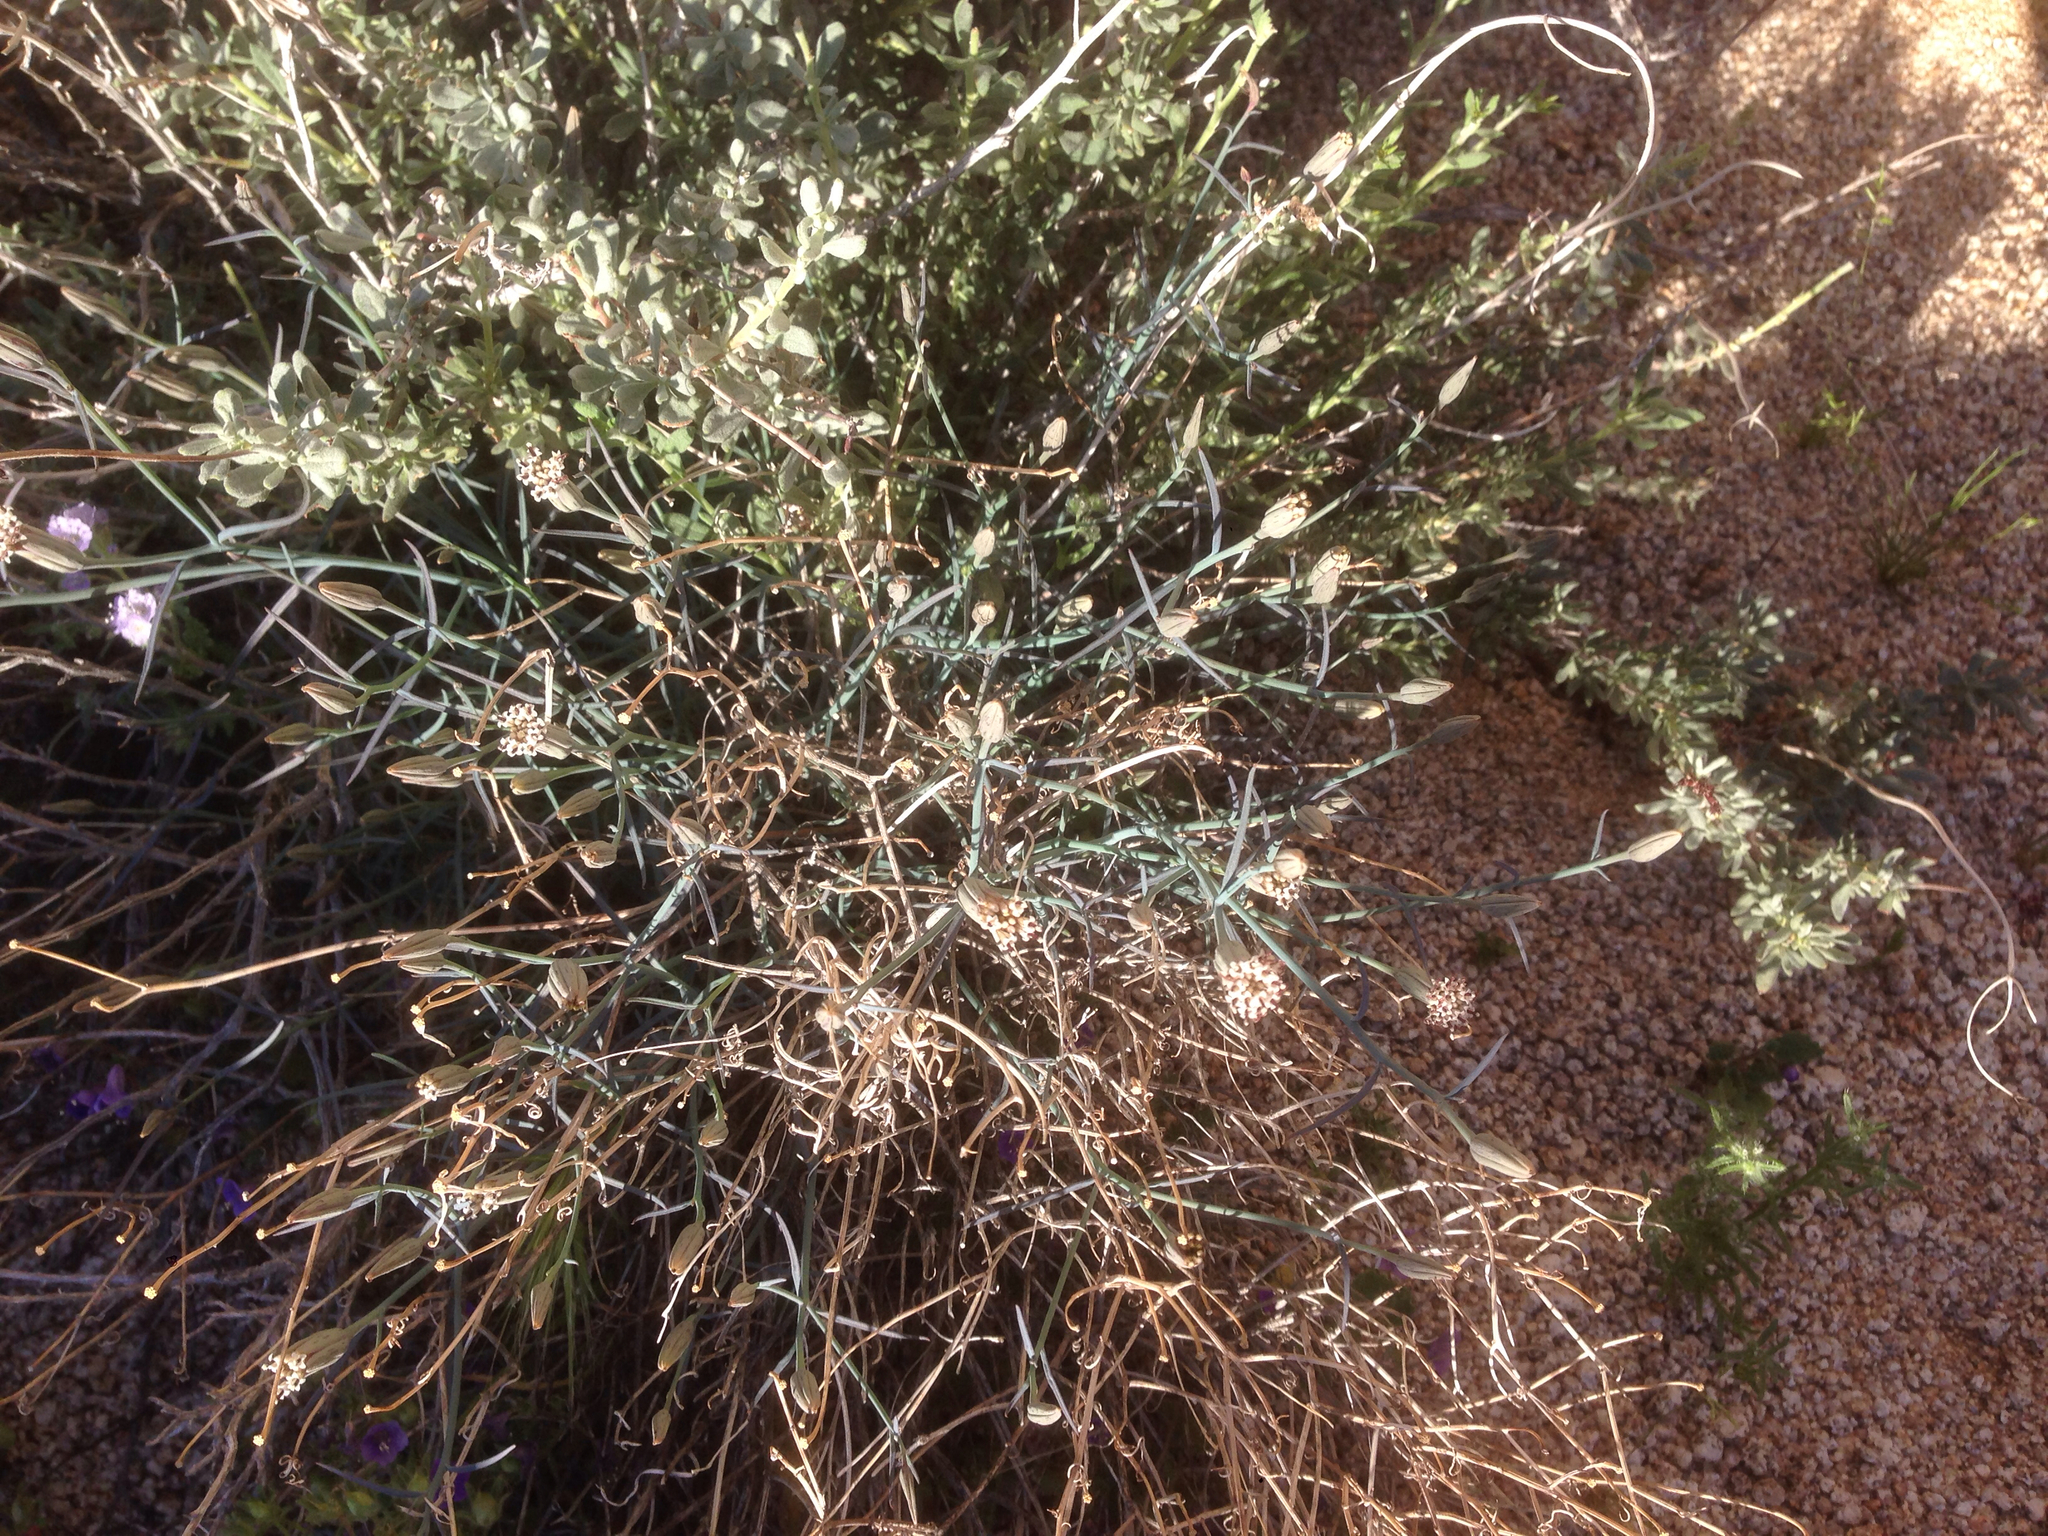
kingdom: Plantae
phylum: Tracheophyta
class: Magnoliopsida
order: Asterales
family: Asteraceae
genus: Porophyllum
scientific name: Porophyllum gracile
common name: Odora
